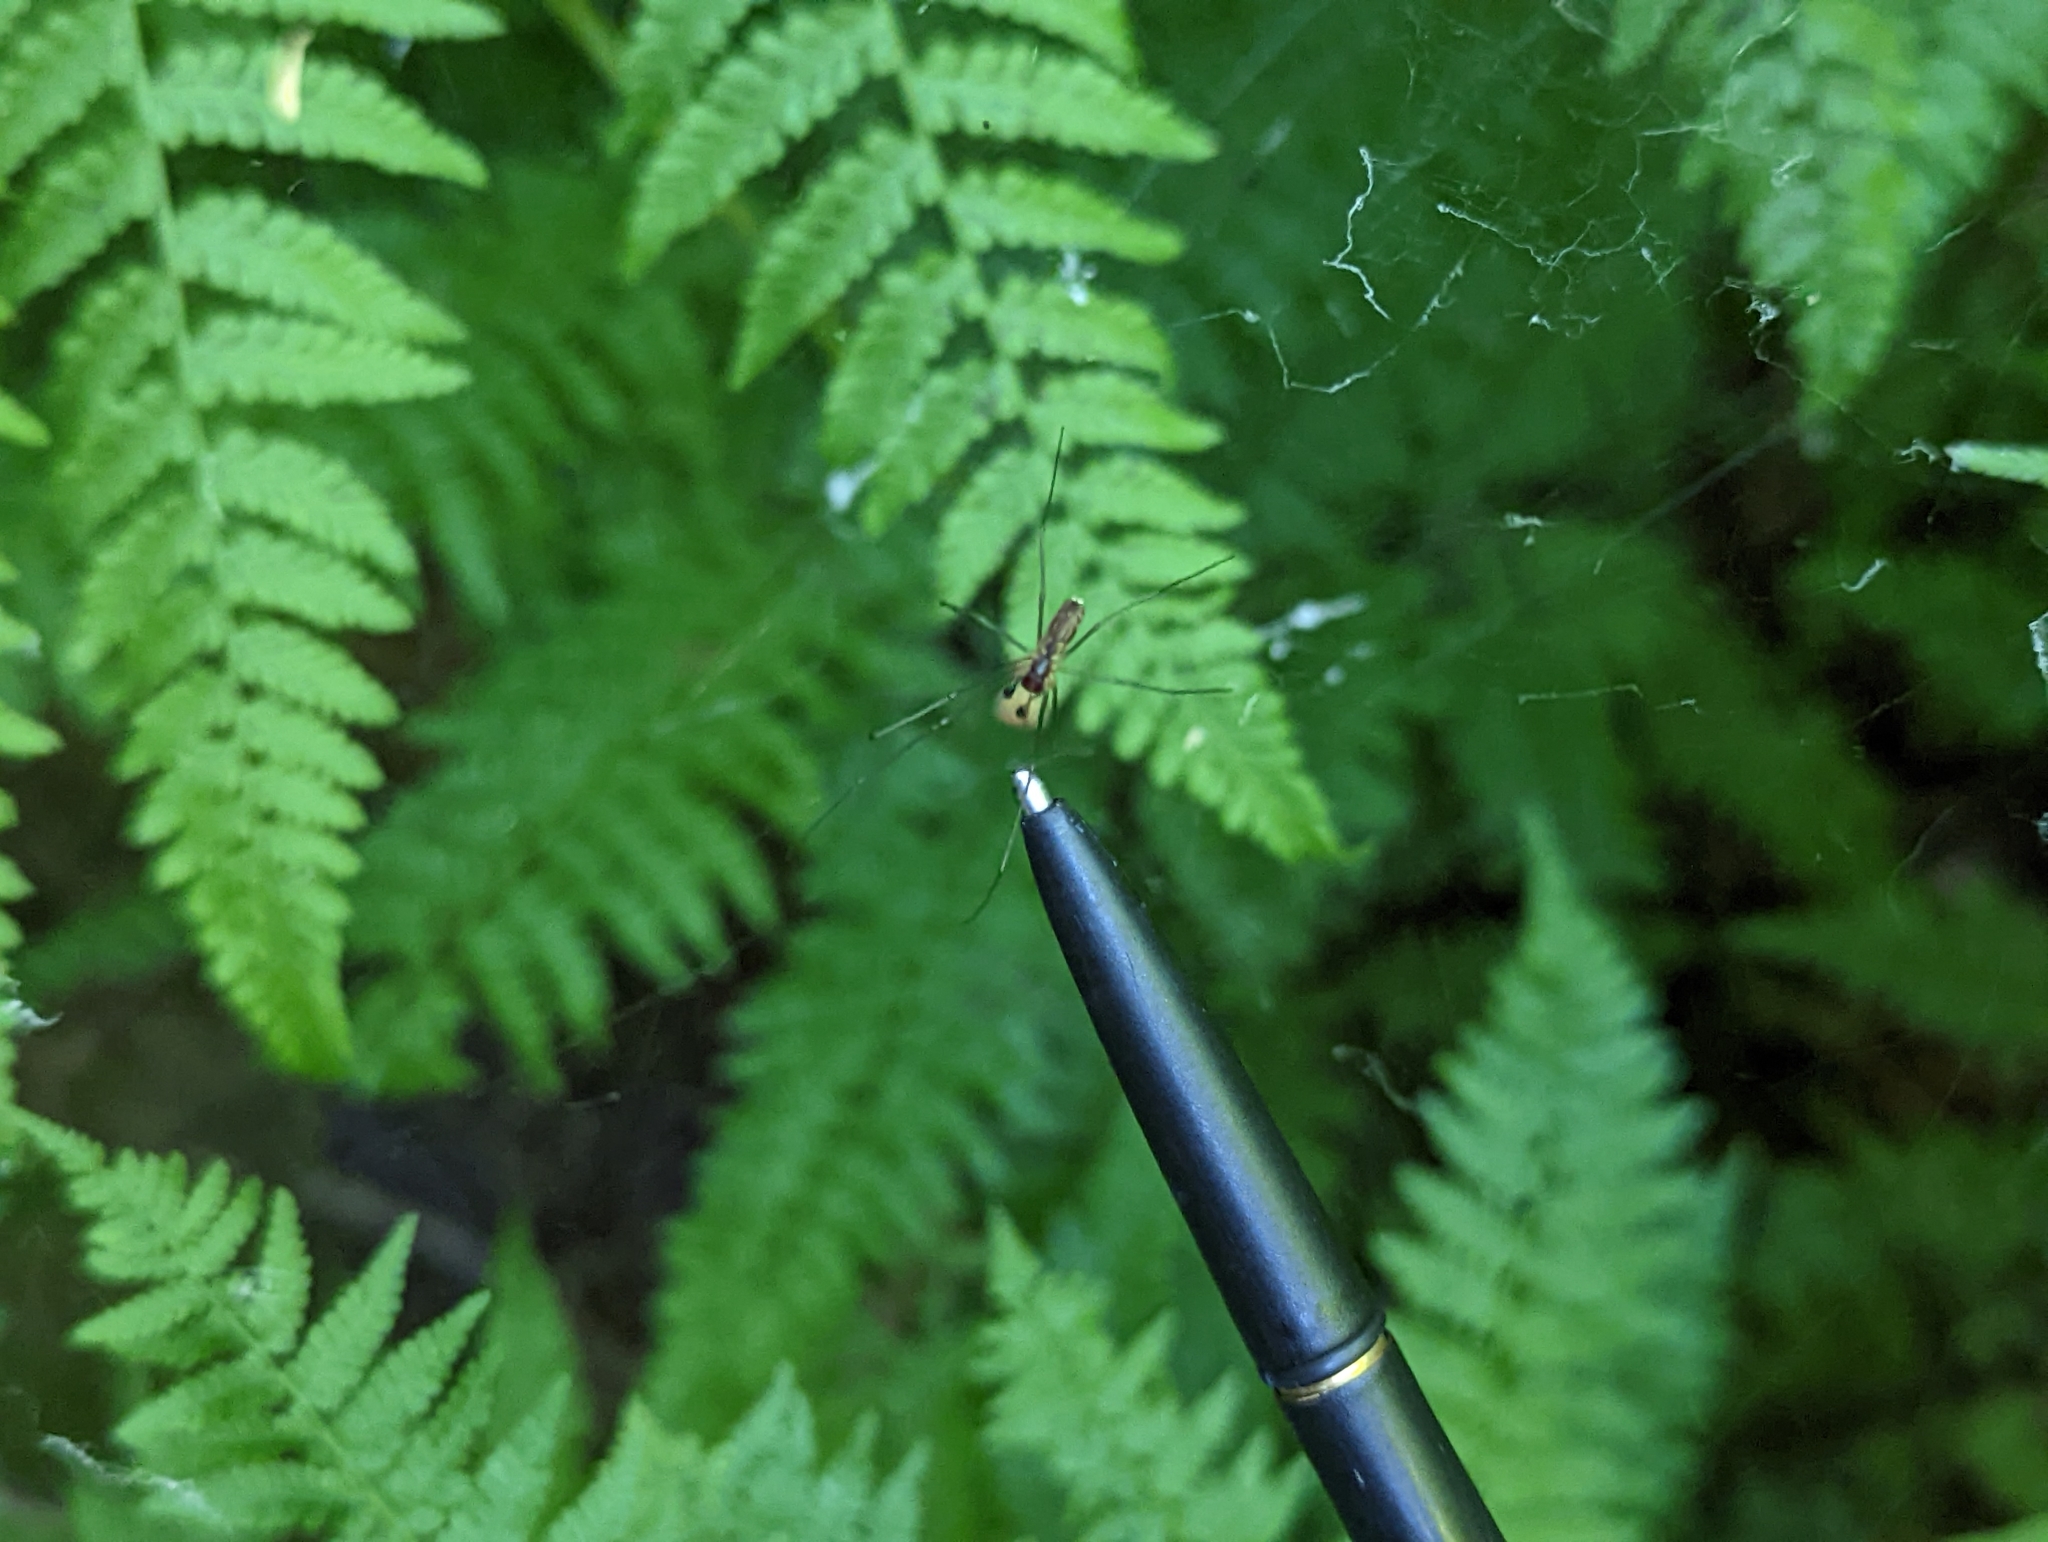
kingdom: Animalia
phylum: Arthropoda
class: Arachnida
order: Araneae
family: Linyphiidae
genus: Neriene
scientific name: Neriene litigiosa
